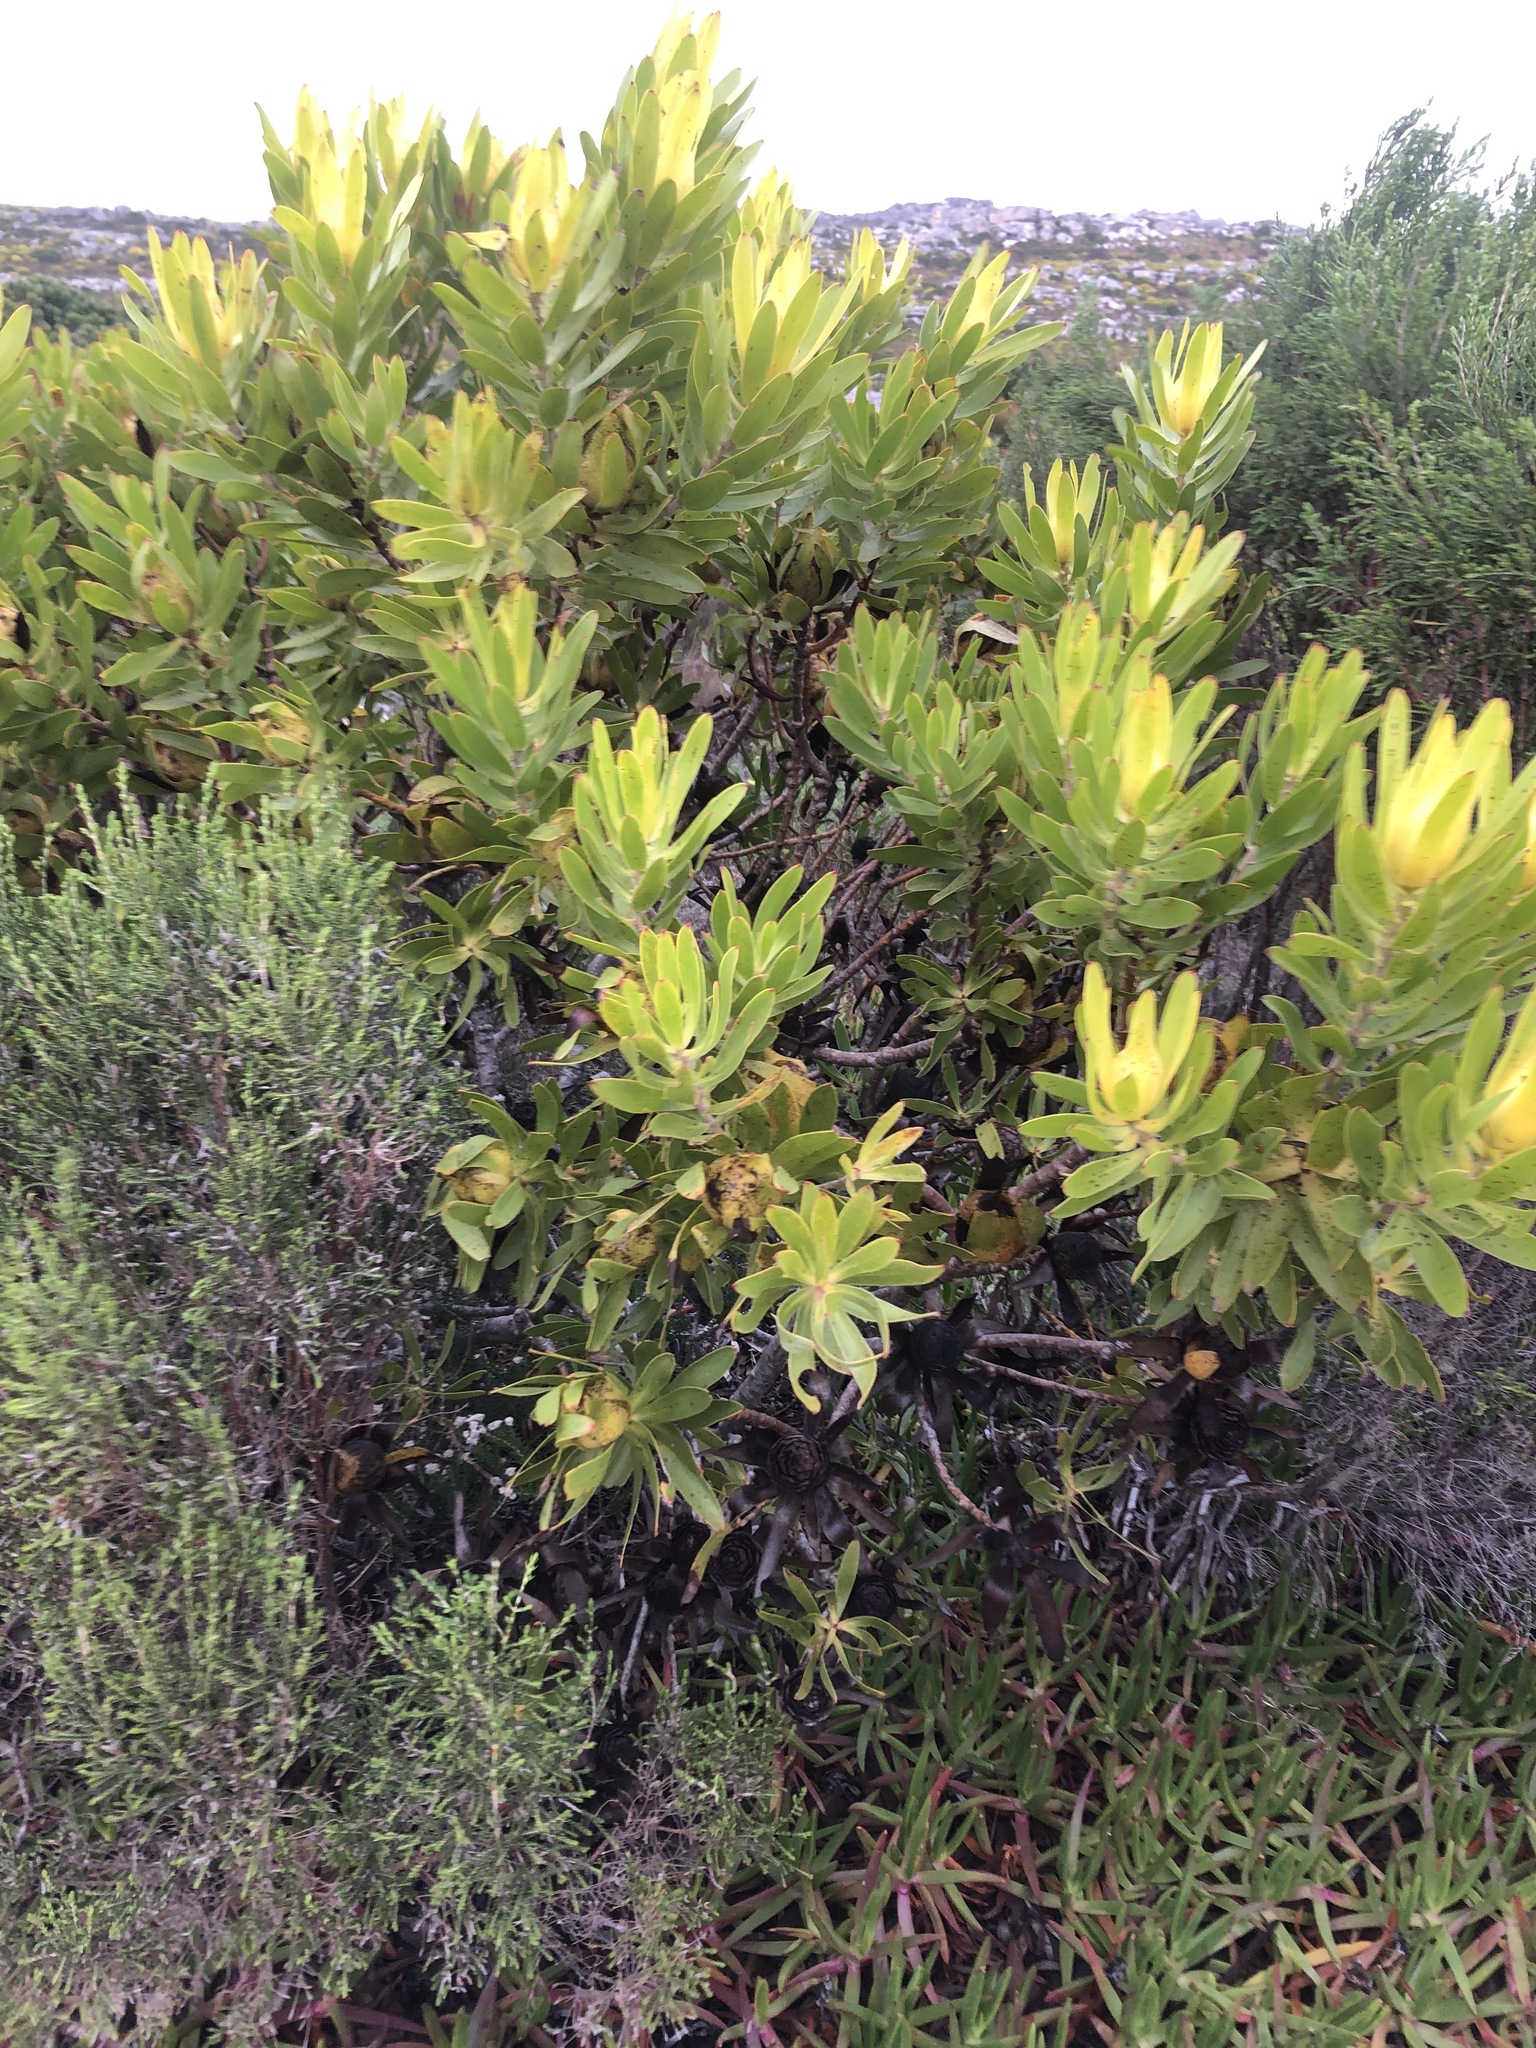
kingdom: Plantae
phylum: Tracheophyta
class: Magnoliopsida
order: Proteales
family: Proteaceae
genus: Leucadendron
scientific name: Leucadendron laureolum
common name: Golden sunshinebush
